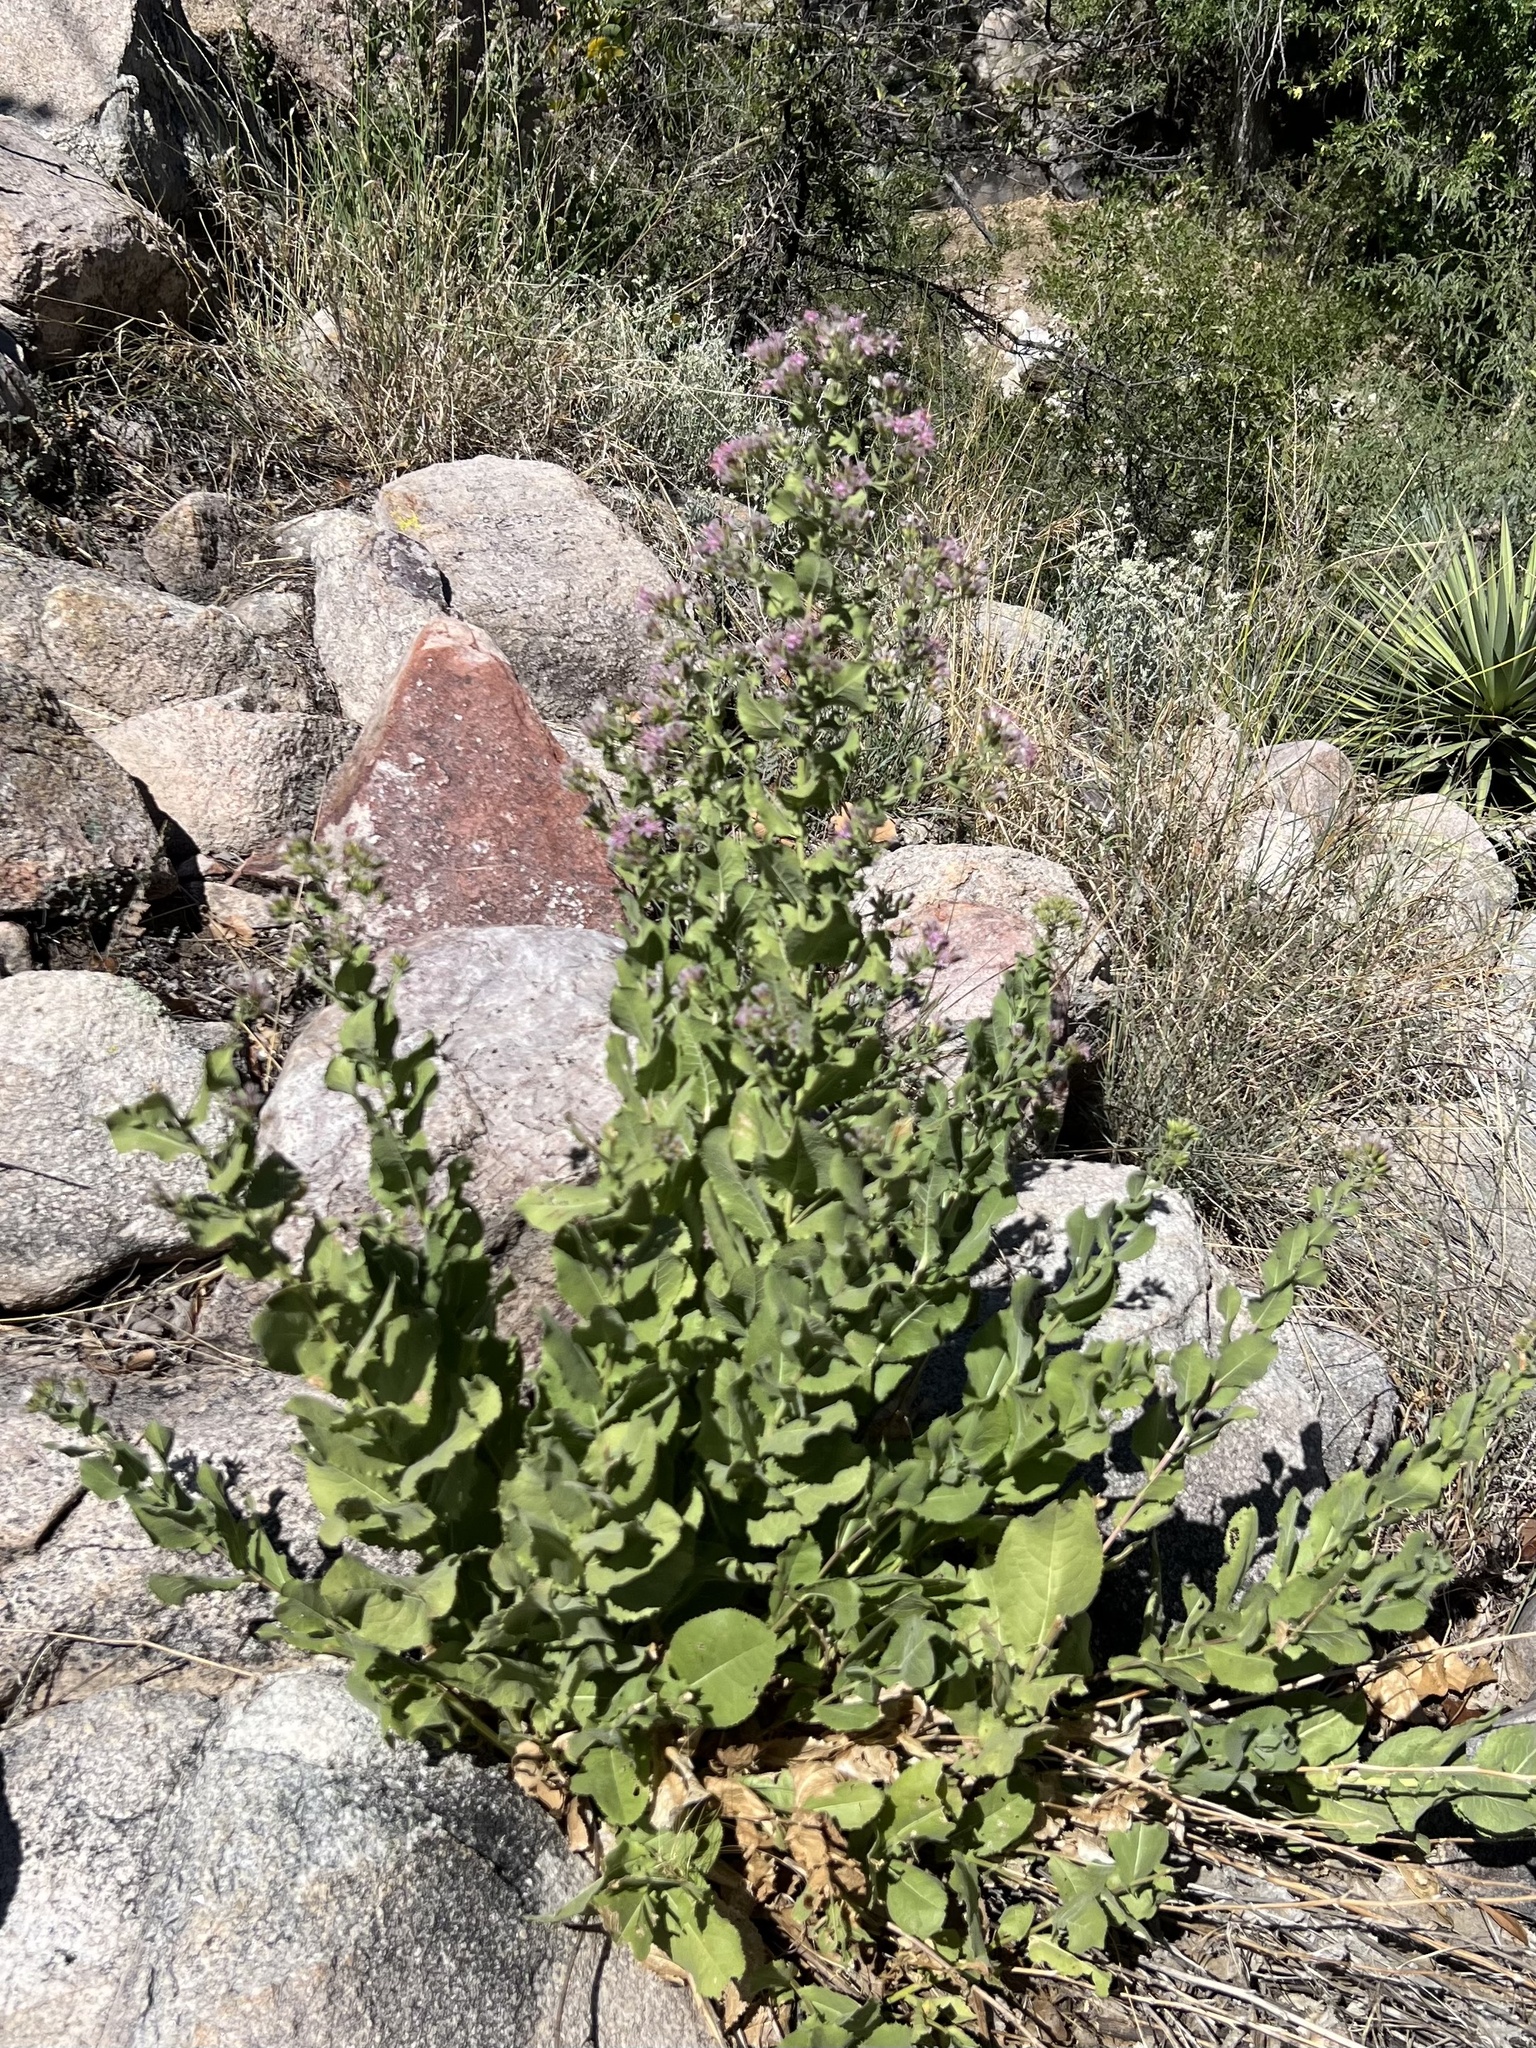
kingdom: Plantae
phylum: Tracheophyta
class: Magnoliopsida
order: Asterales
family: Asteraceae
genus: Acourtia
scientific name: Acourtia wrightii
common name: Brownfoot
